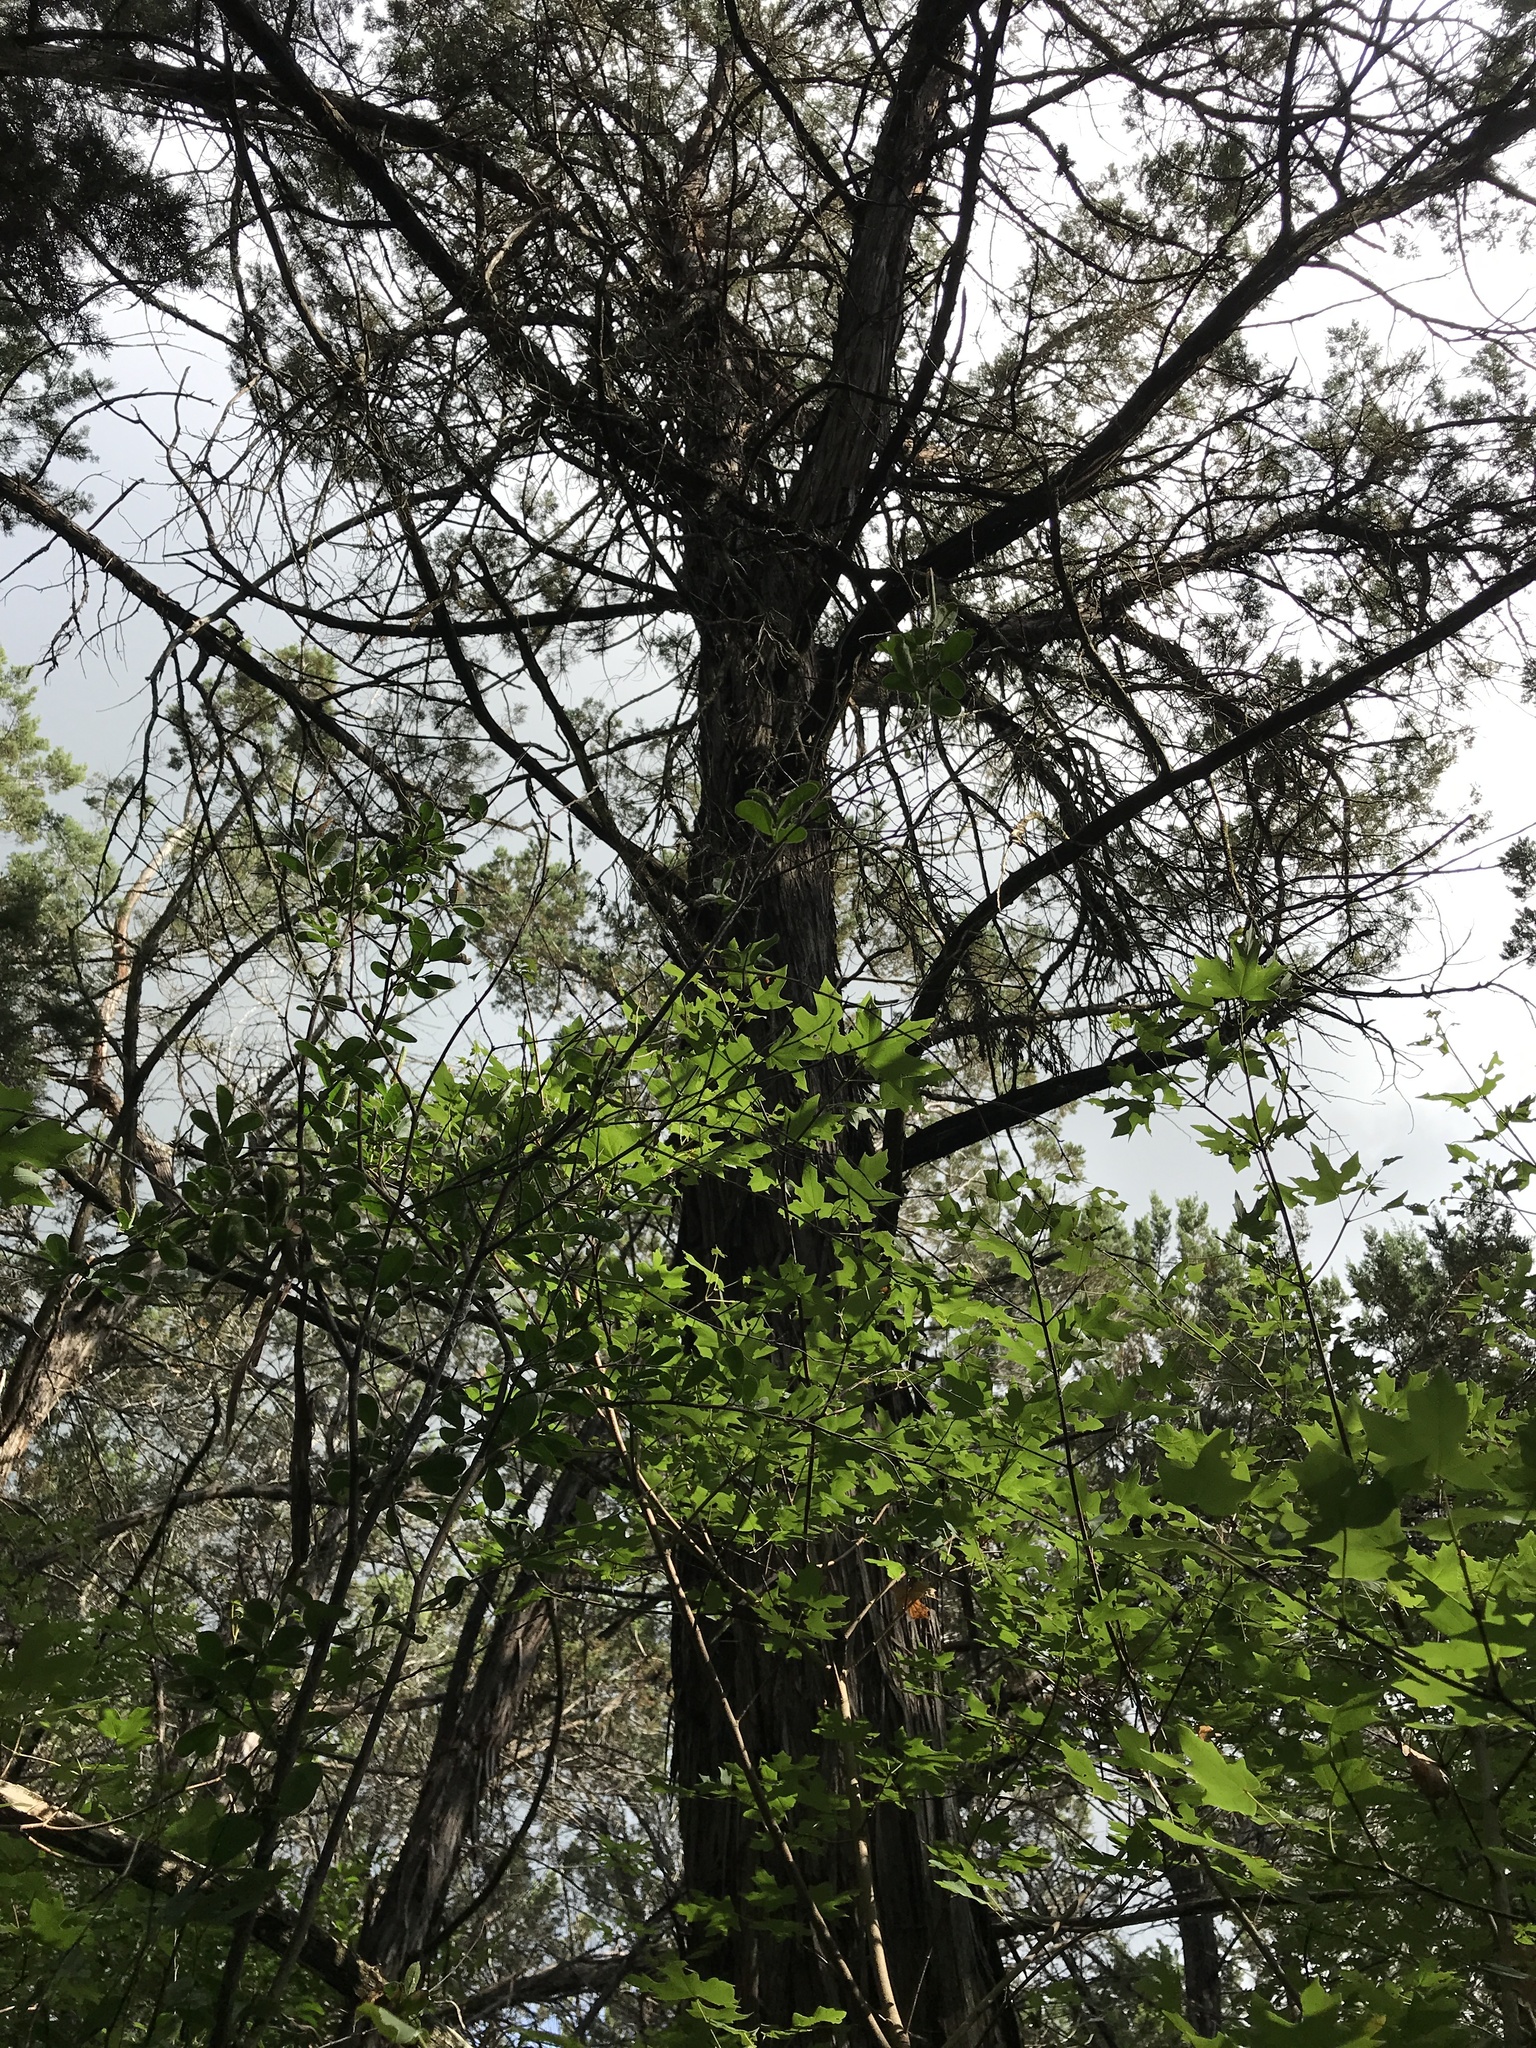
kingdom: Plantae
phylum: Tracheophyta
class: Pinopsida
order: Pinales
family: Cupressaceae
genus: Juniperus
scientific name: Juniperus ashei
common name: Mexican juniper
